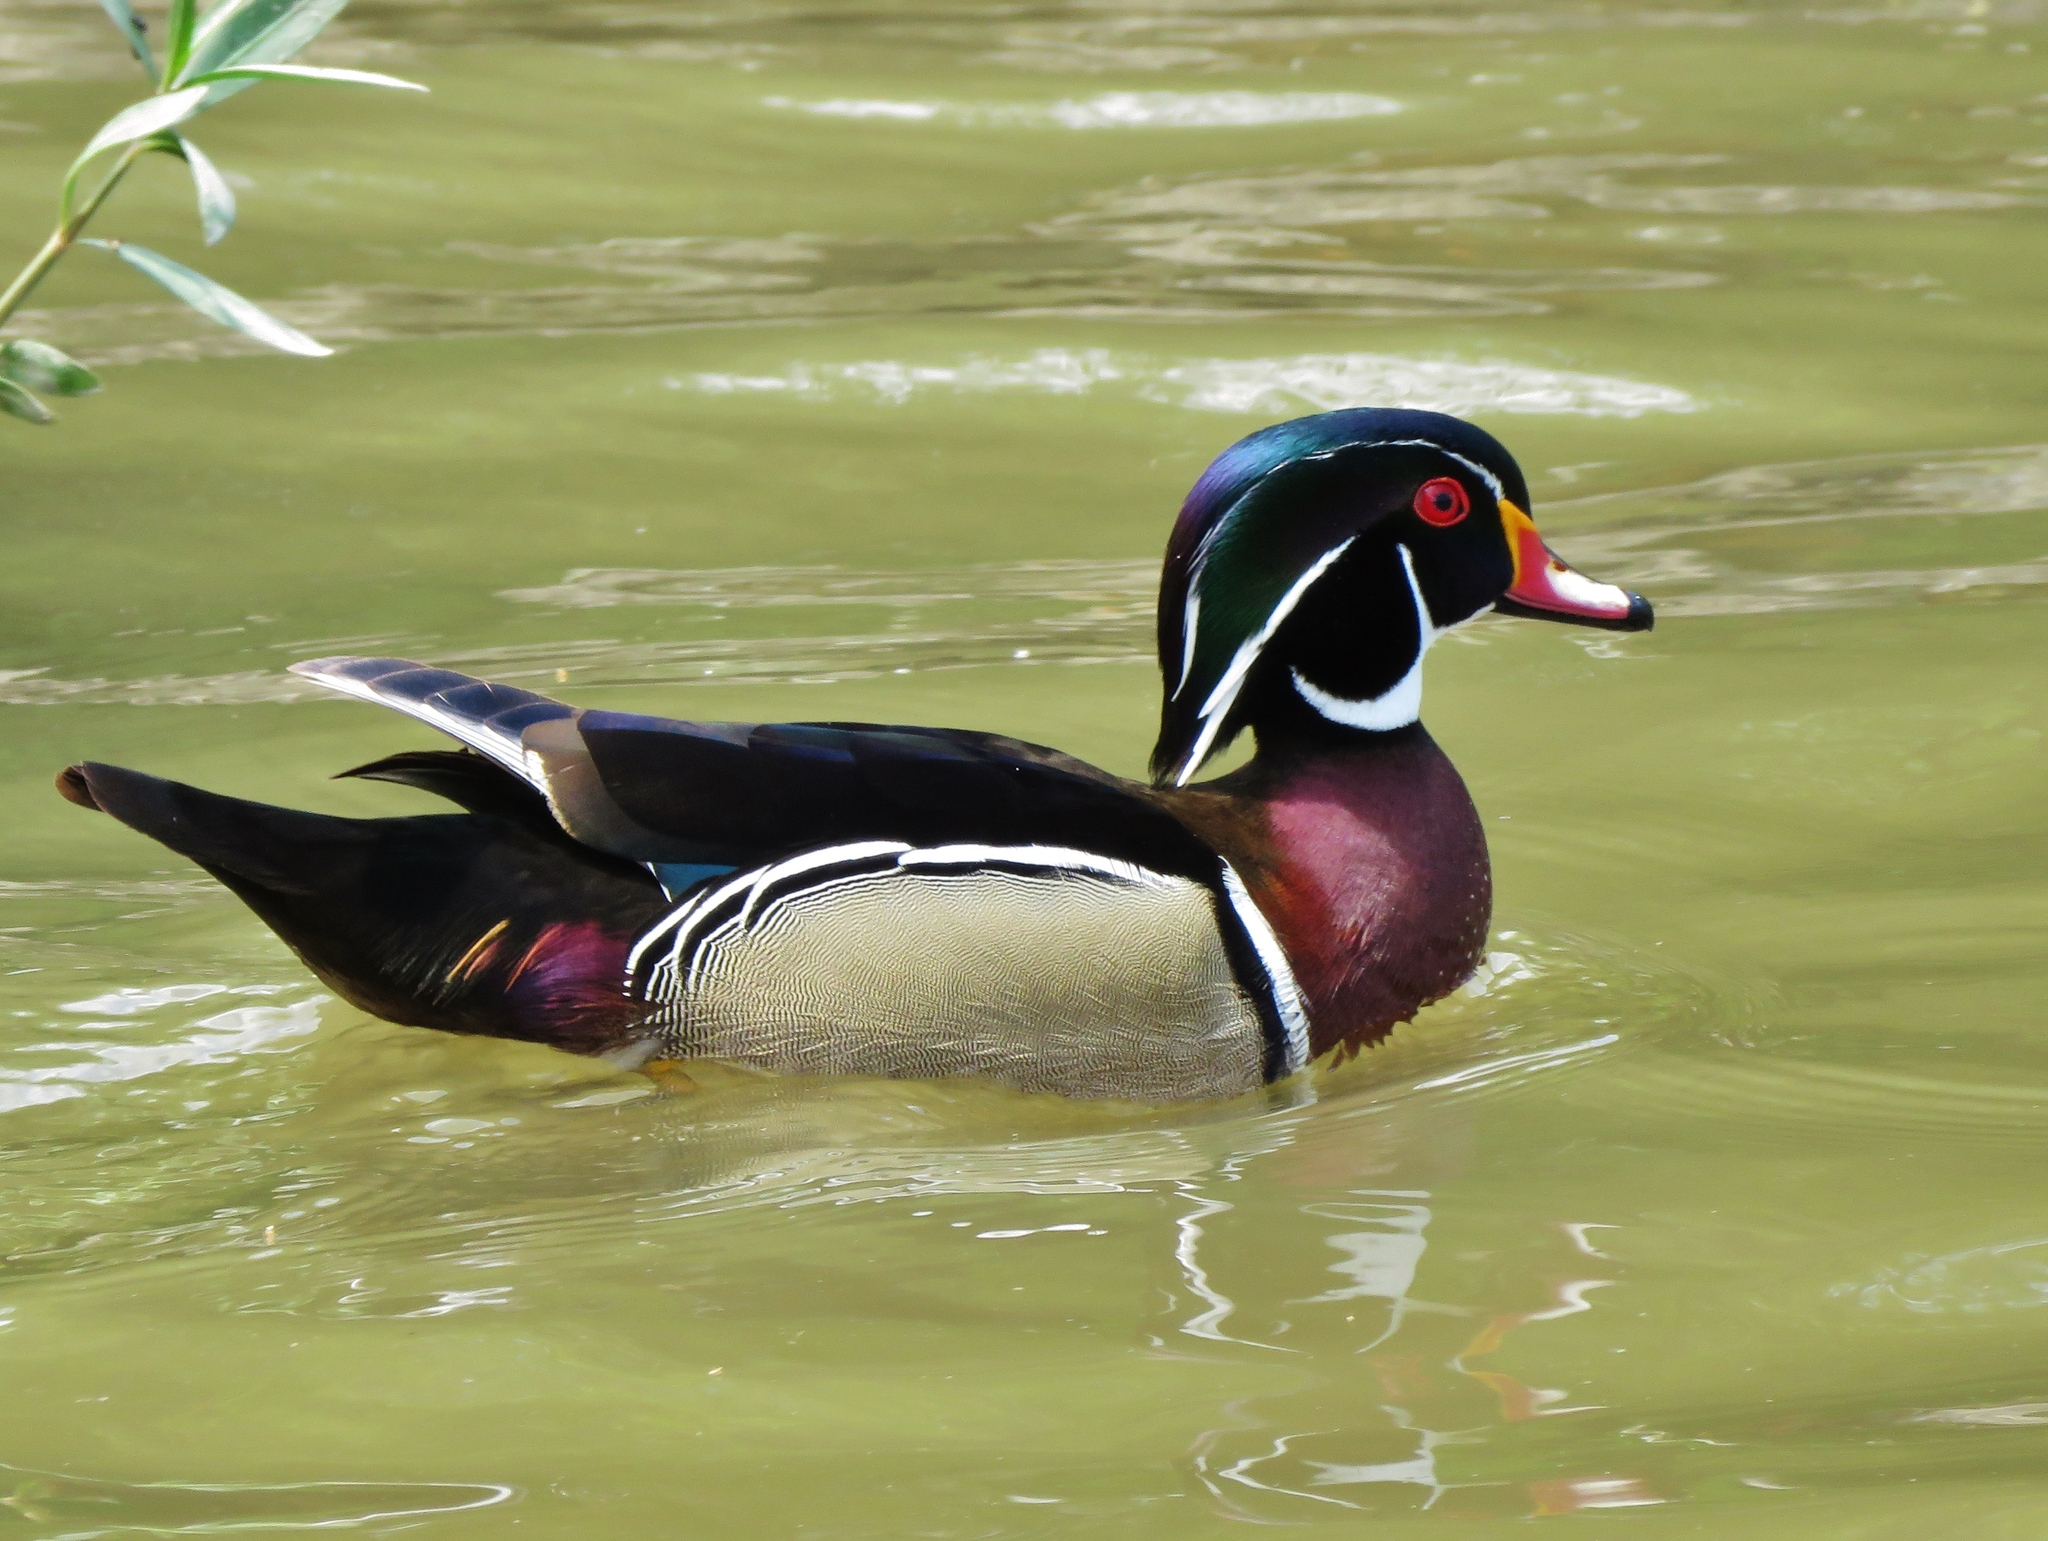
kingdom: Animalia
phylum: Chordata
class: Aves
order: Anseriformes
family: Anatidae
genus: Aix
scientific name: Aix sponsa
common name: Wood duck
